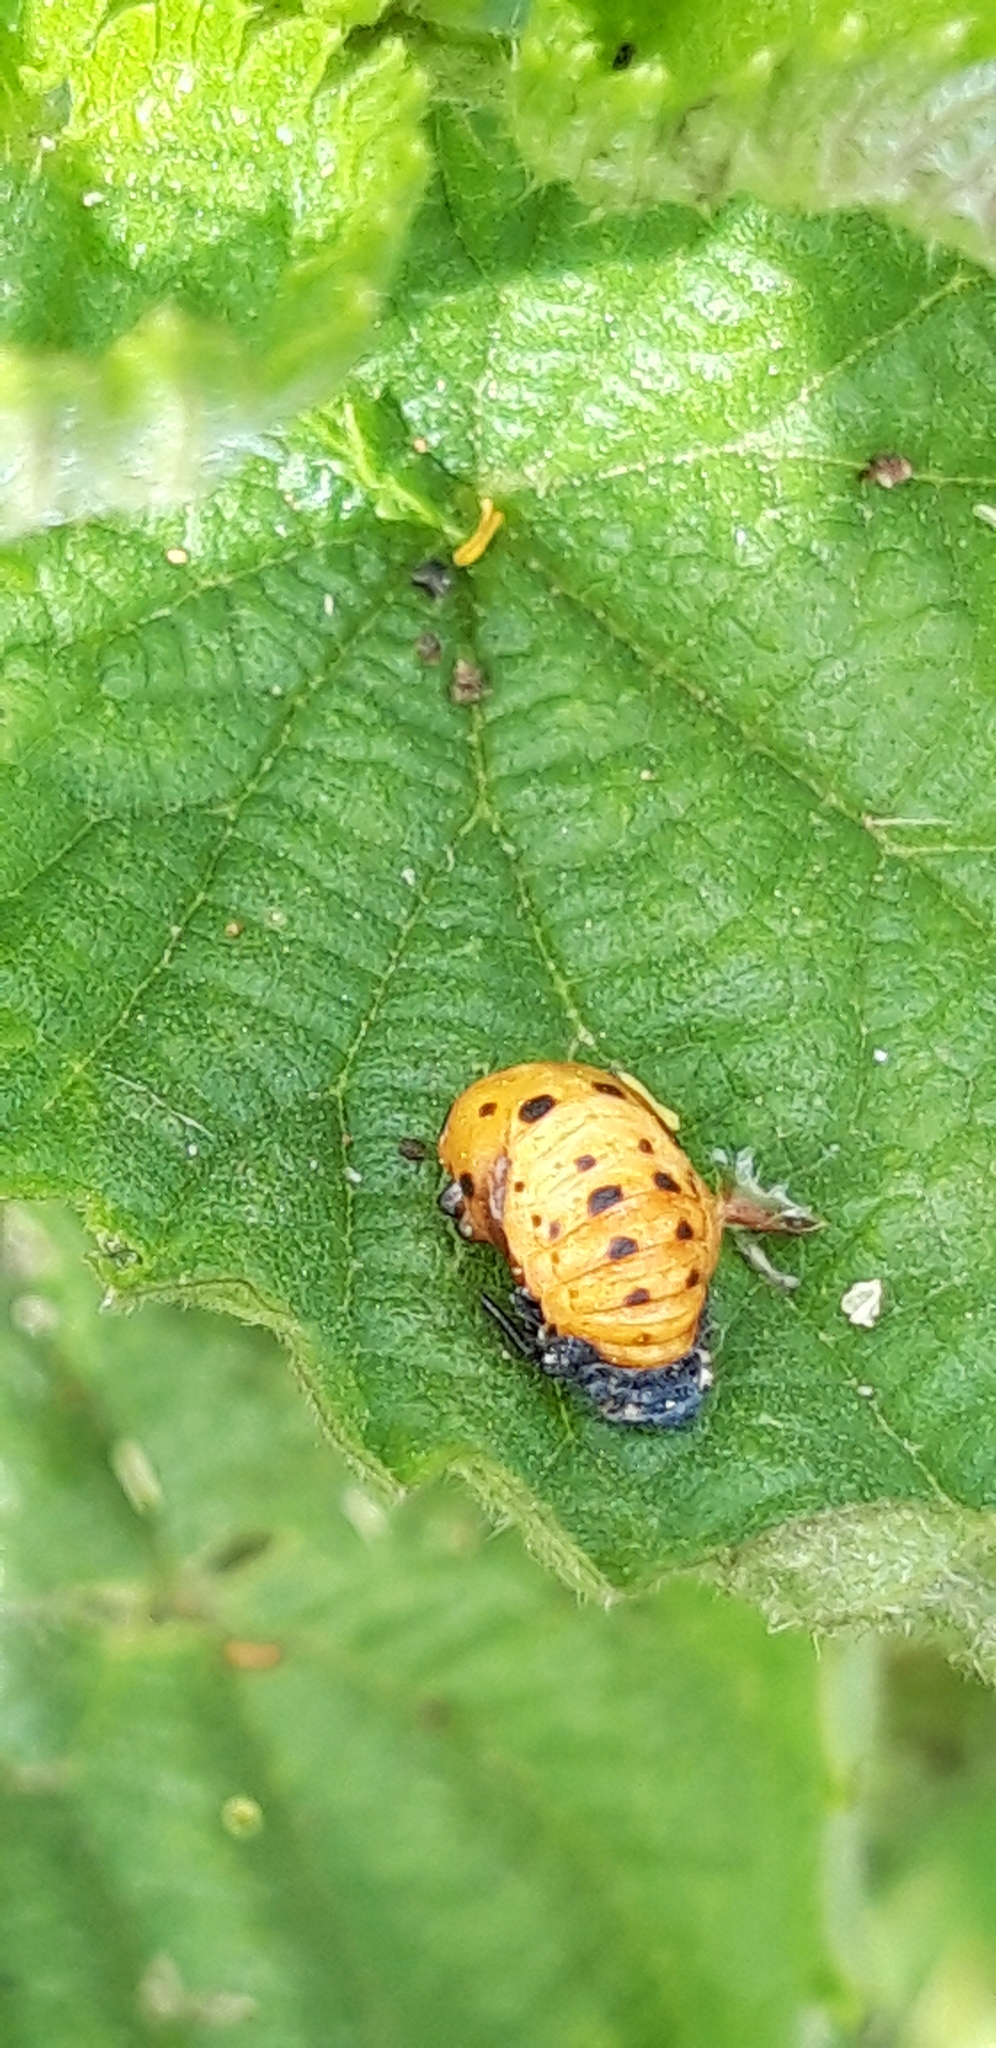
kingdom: Animalia
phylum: Arthropoda
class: Insecta
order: Coleoptera
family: Coccinellidae
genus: Coccinella
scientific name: Coccinella septempunctata
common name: Sevenspotted lady beetle
